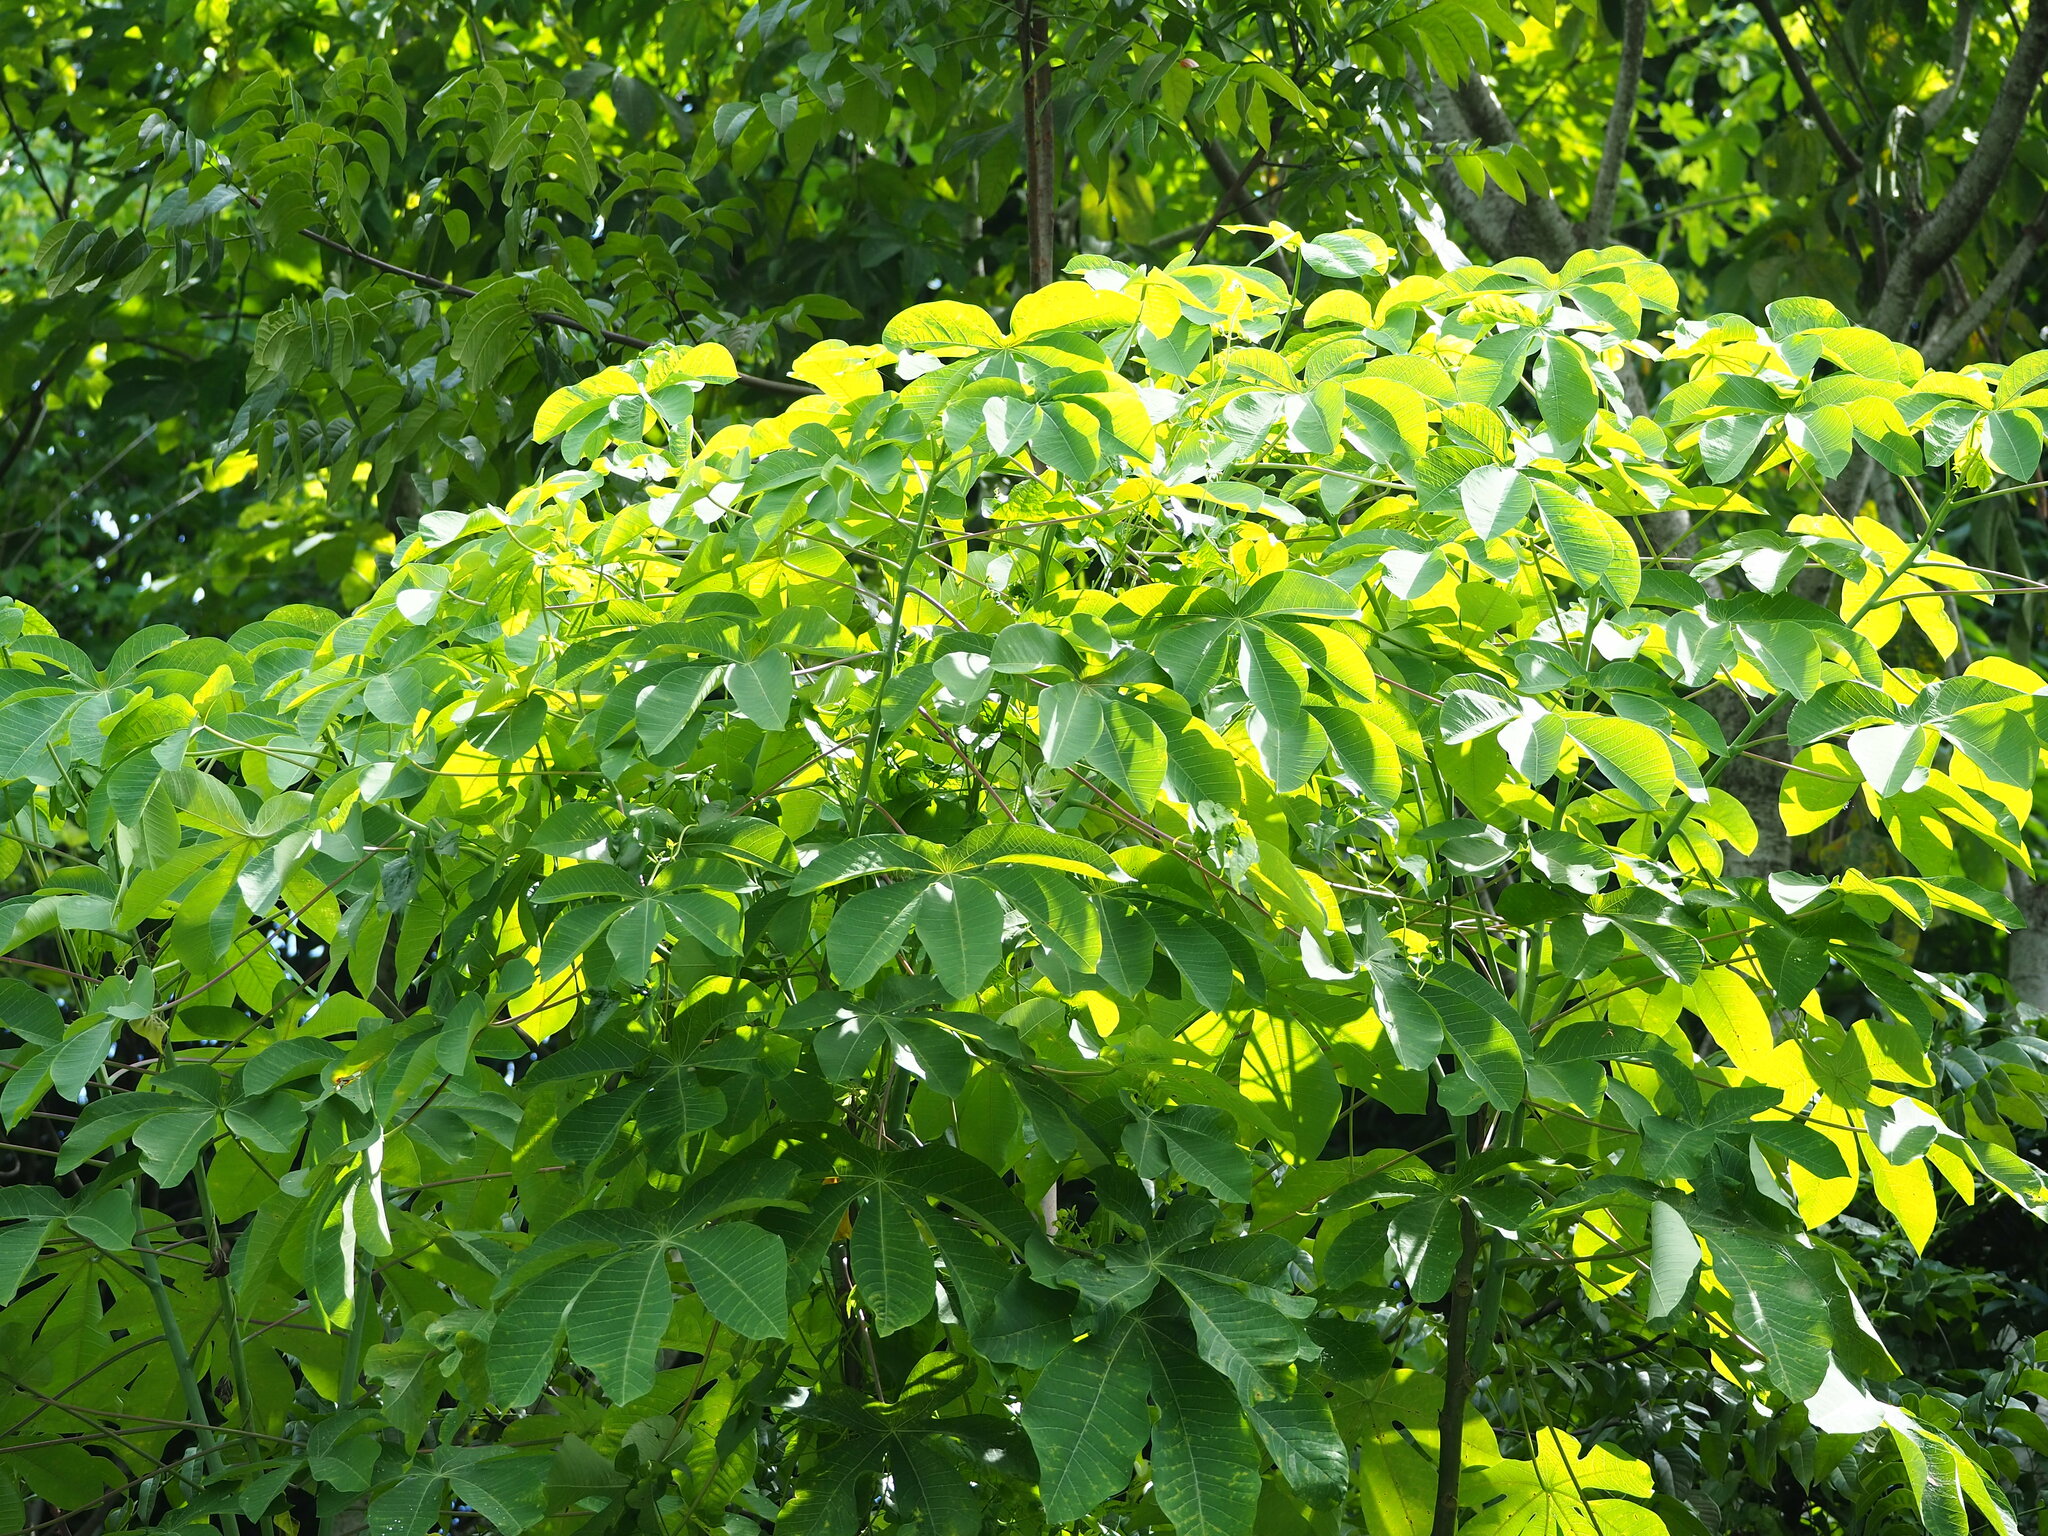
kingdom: Plantae
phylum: Tracheophyta
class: Magnoliopsida
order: Malpighiales
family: Euphorbiaceae
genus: Manihot
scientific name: Manihot carthagenensis
